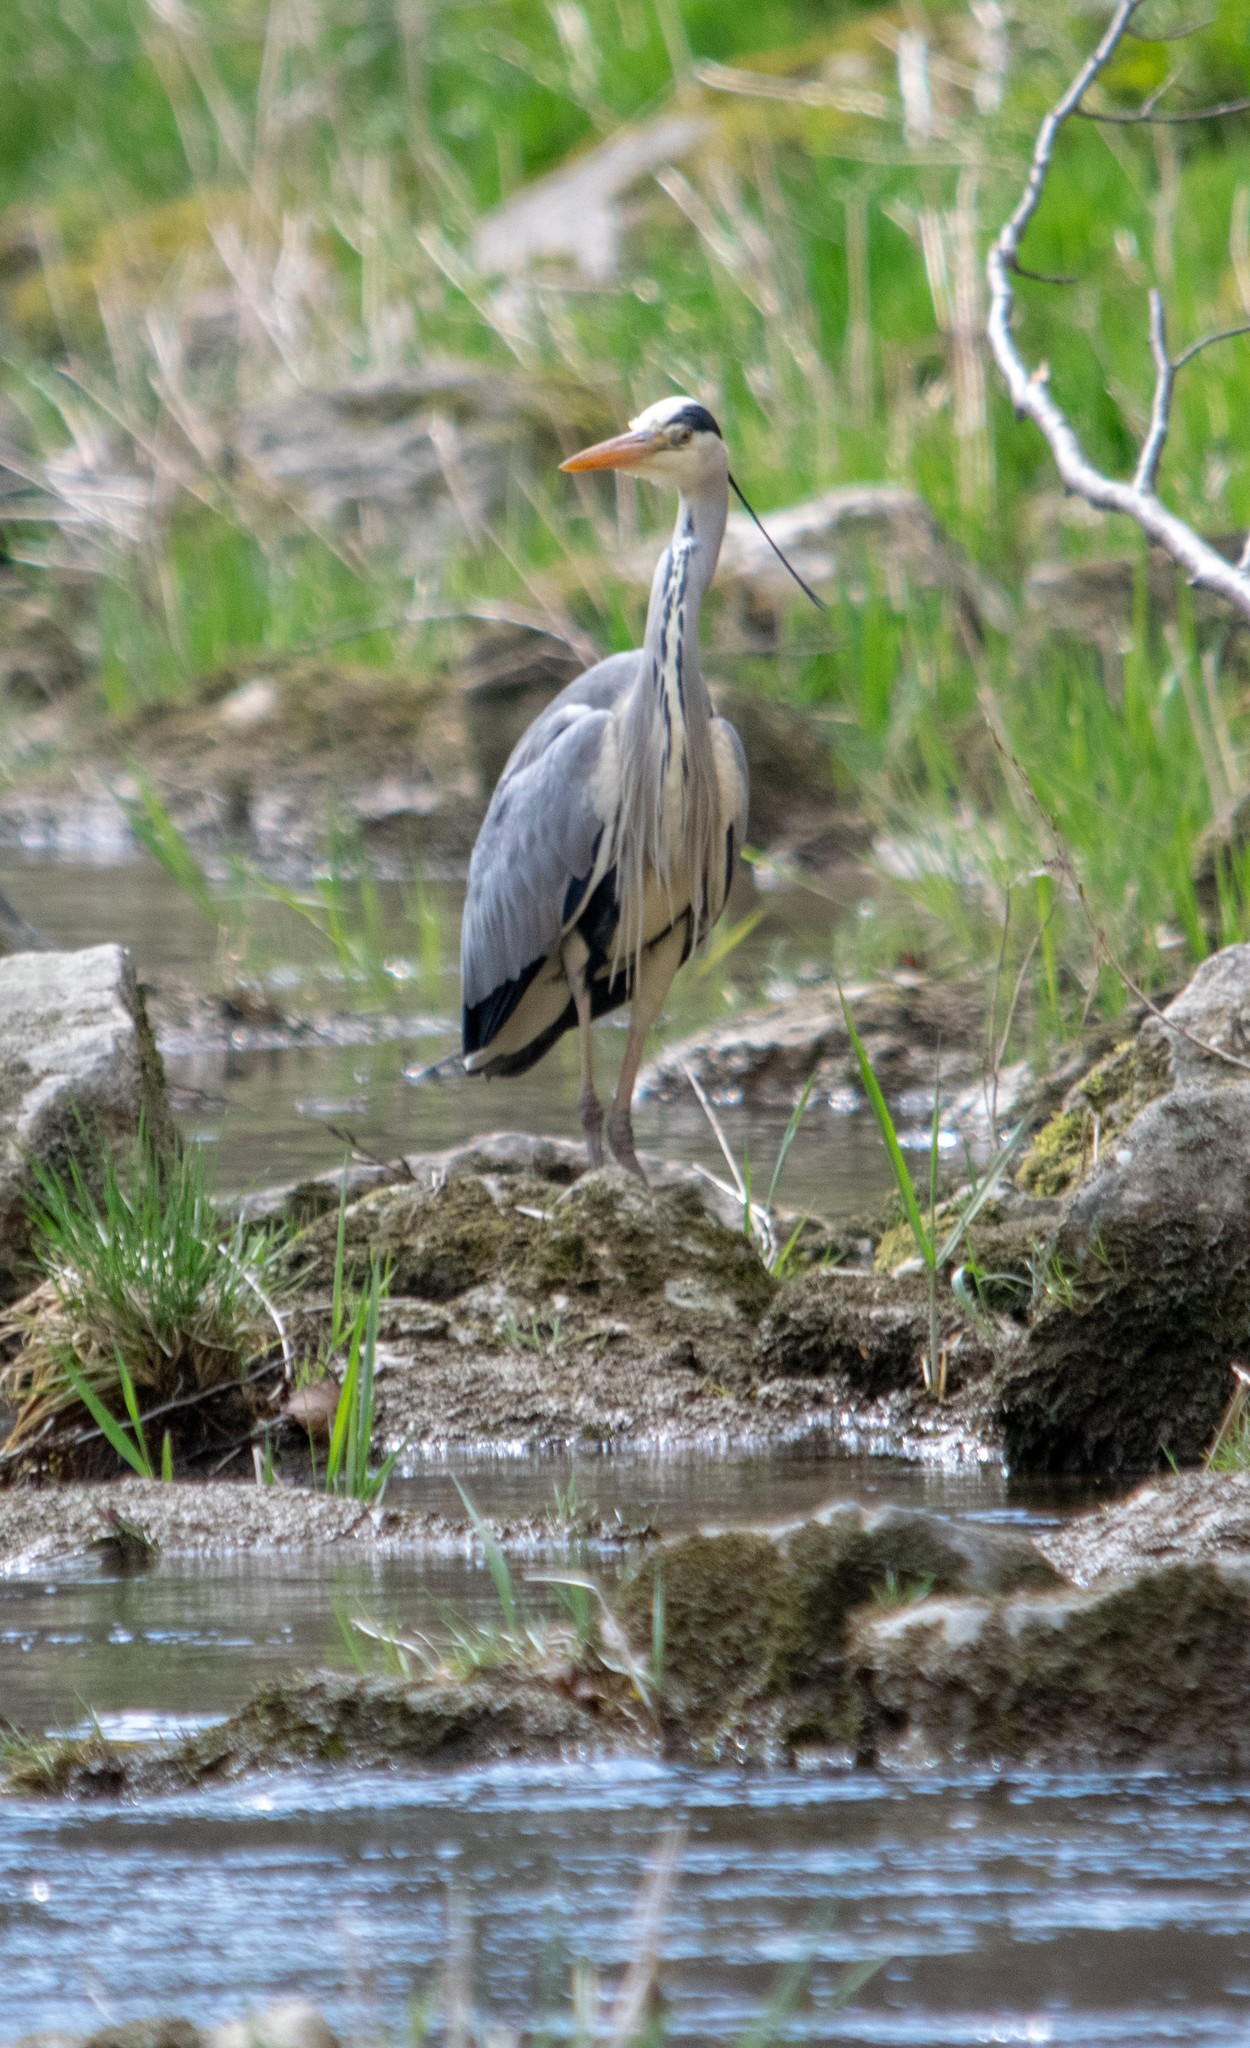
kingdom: Animalia
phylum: Chordata
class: Aves
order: Pelecaniformes
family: Ardeidae
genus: Ardea
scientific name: Ardea cinerea
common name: Grey heron
